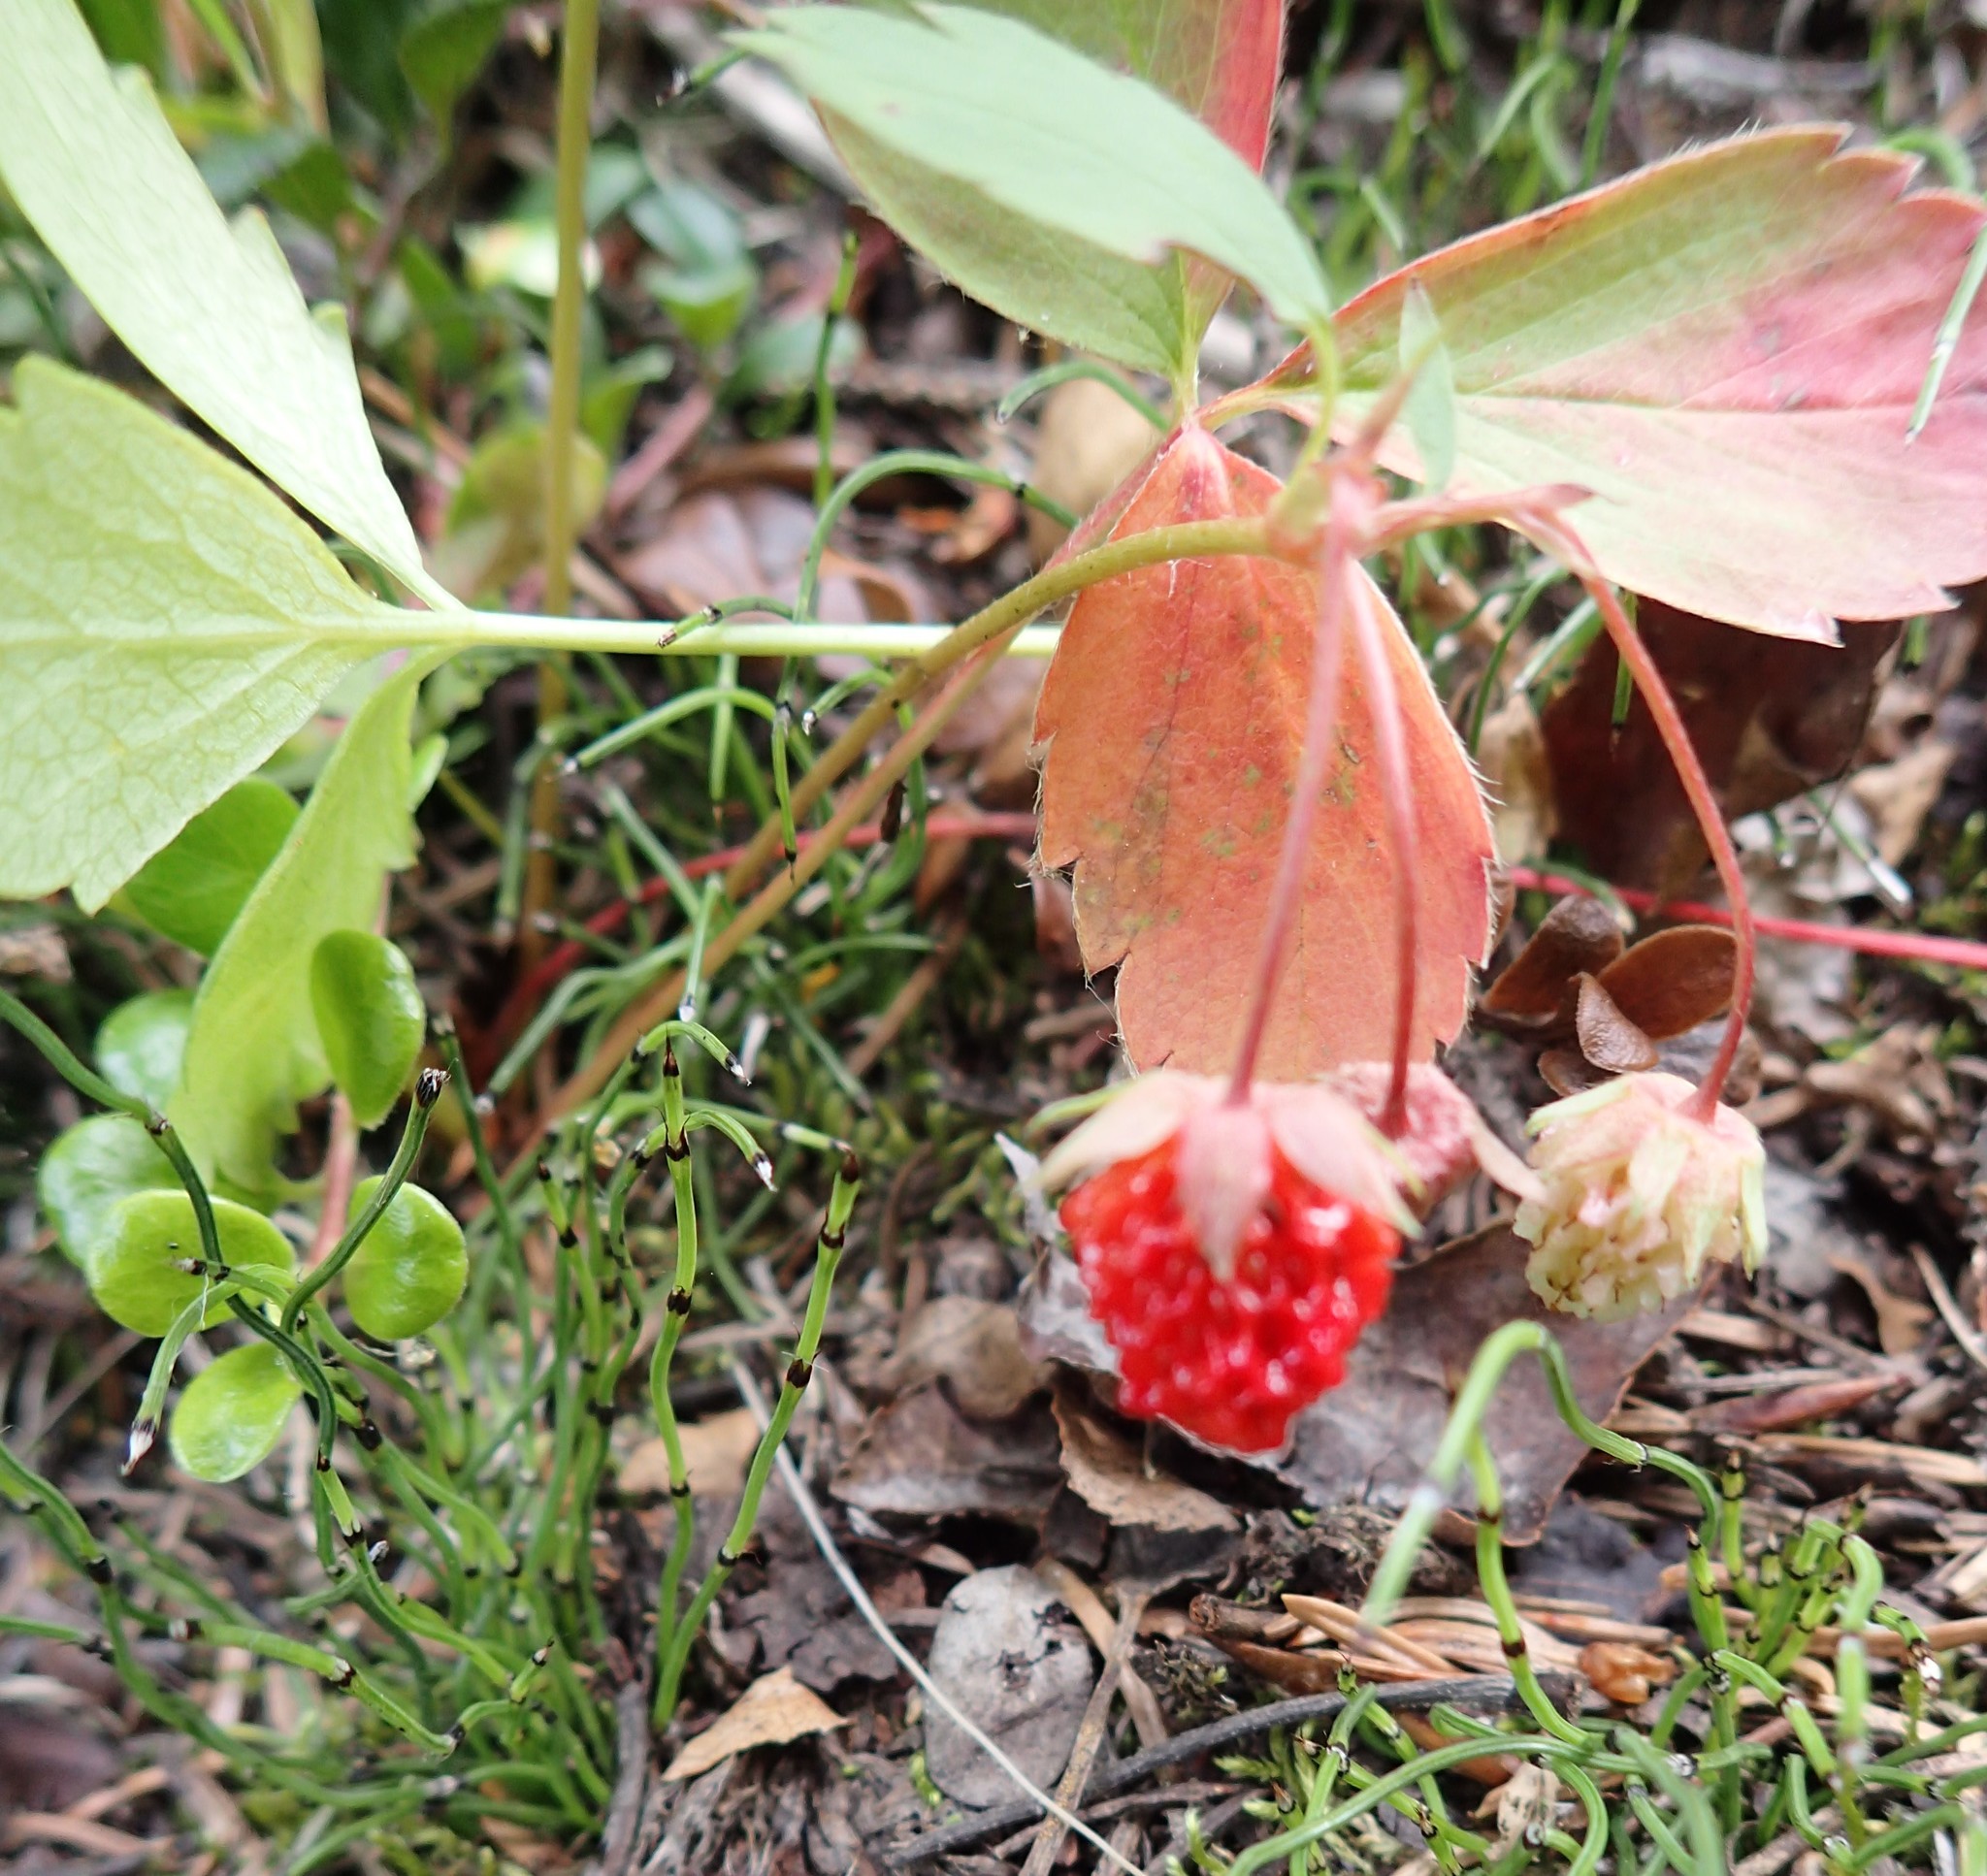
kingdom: Plantae
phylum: Tracheophyta
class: Magnoliopsida
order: Rosales
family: Rosaceae
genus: Fragaria
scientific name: Fragaria virginiana
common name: Thickleaved wild strawberry
